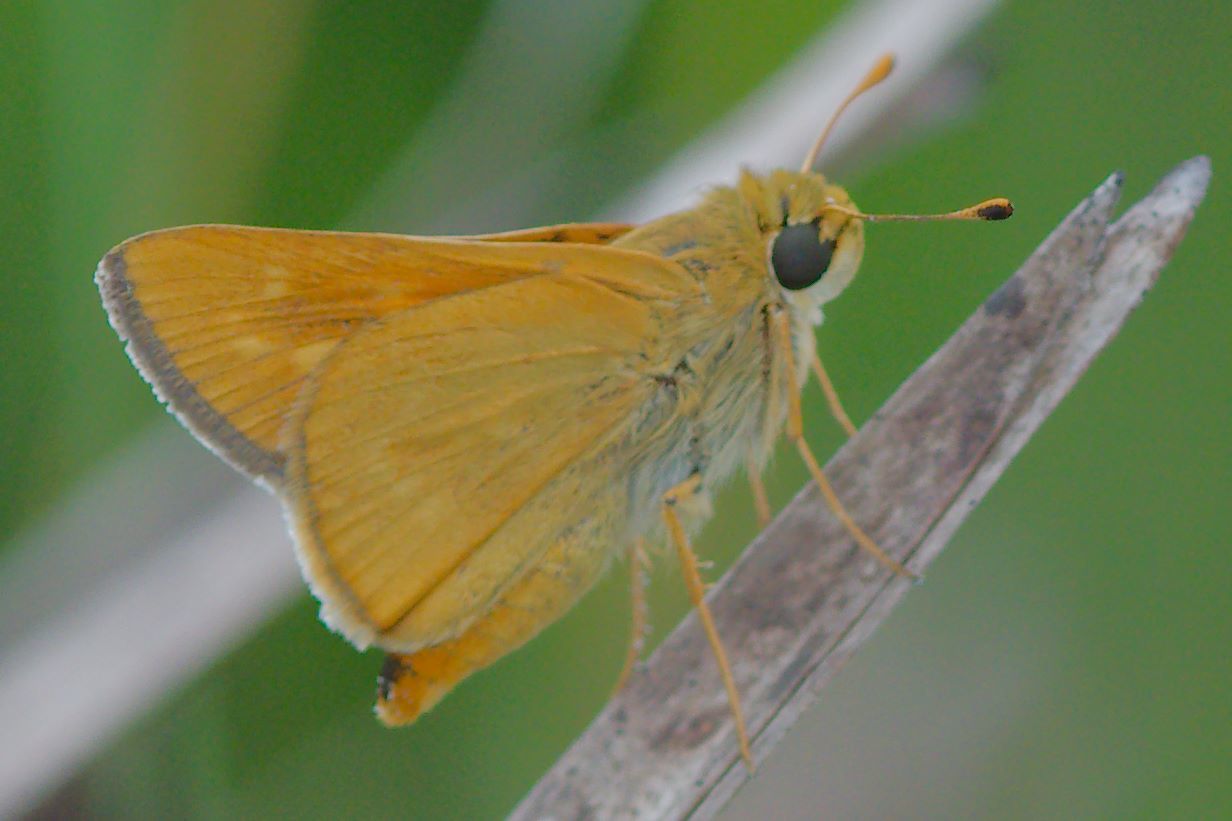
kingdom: Animalia
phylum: Arthropoda
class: Insecta
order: Lepidoptera
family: Hesperiidae
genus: Hesperia
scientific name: Hesperia meskei
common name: Meske's skipper
